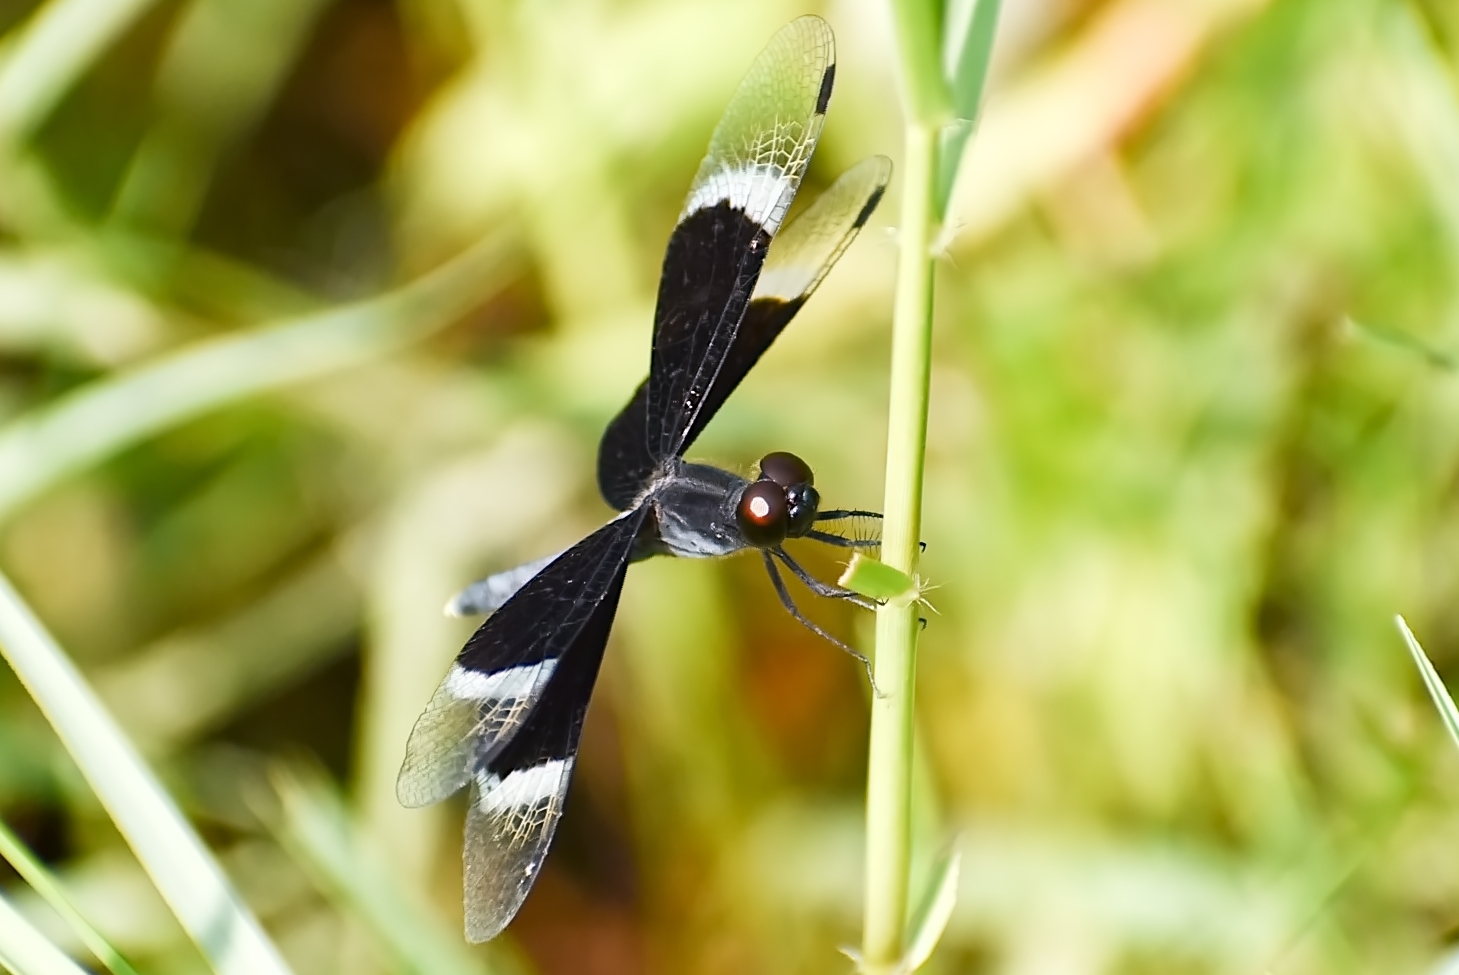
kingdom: Animalia
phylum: Arthropoda
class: Insecta
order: Odonata
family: Libellulidae
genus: Neurothemis
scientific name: Neurothemis tullia
